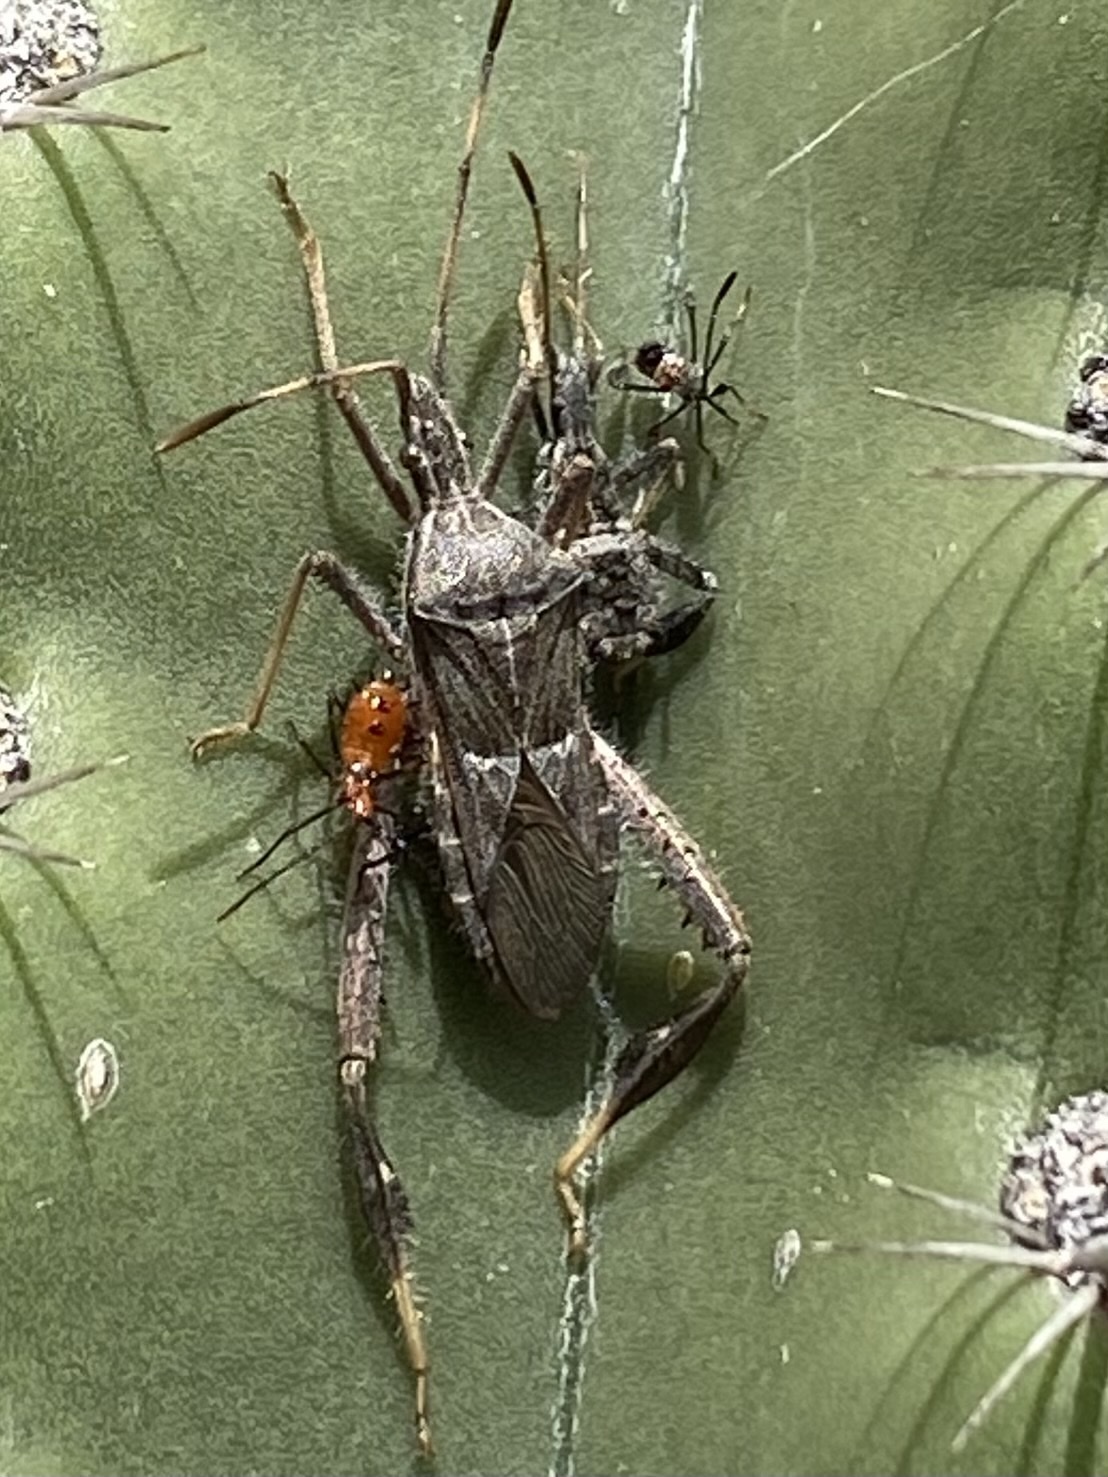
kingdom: Animalia
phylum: Arthropoda
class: Insecta
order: Hemiptera
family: Coreidae
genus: Narnia
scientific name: Narnia femorata
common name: Leaf-footed cactus bug
